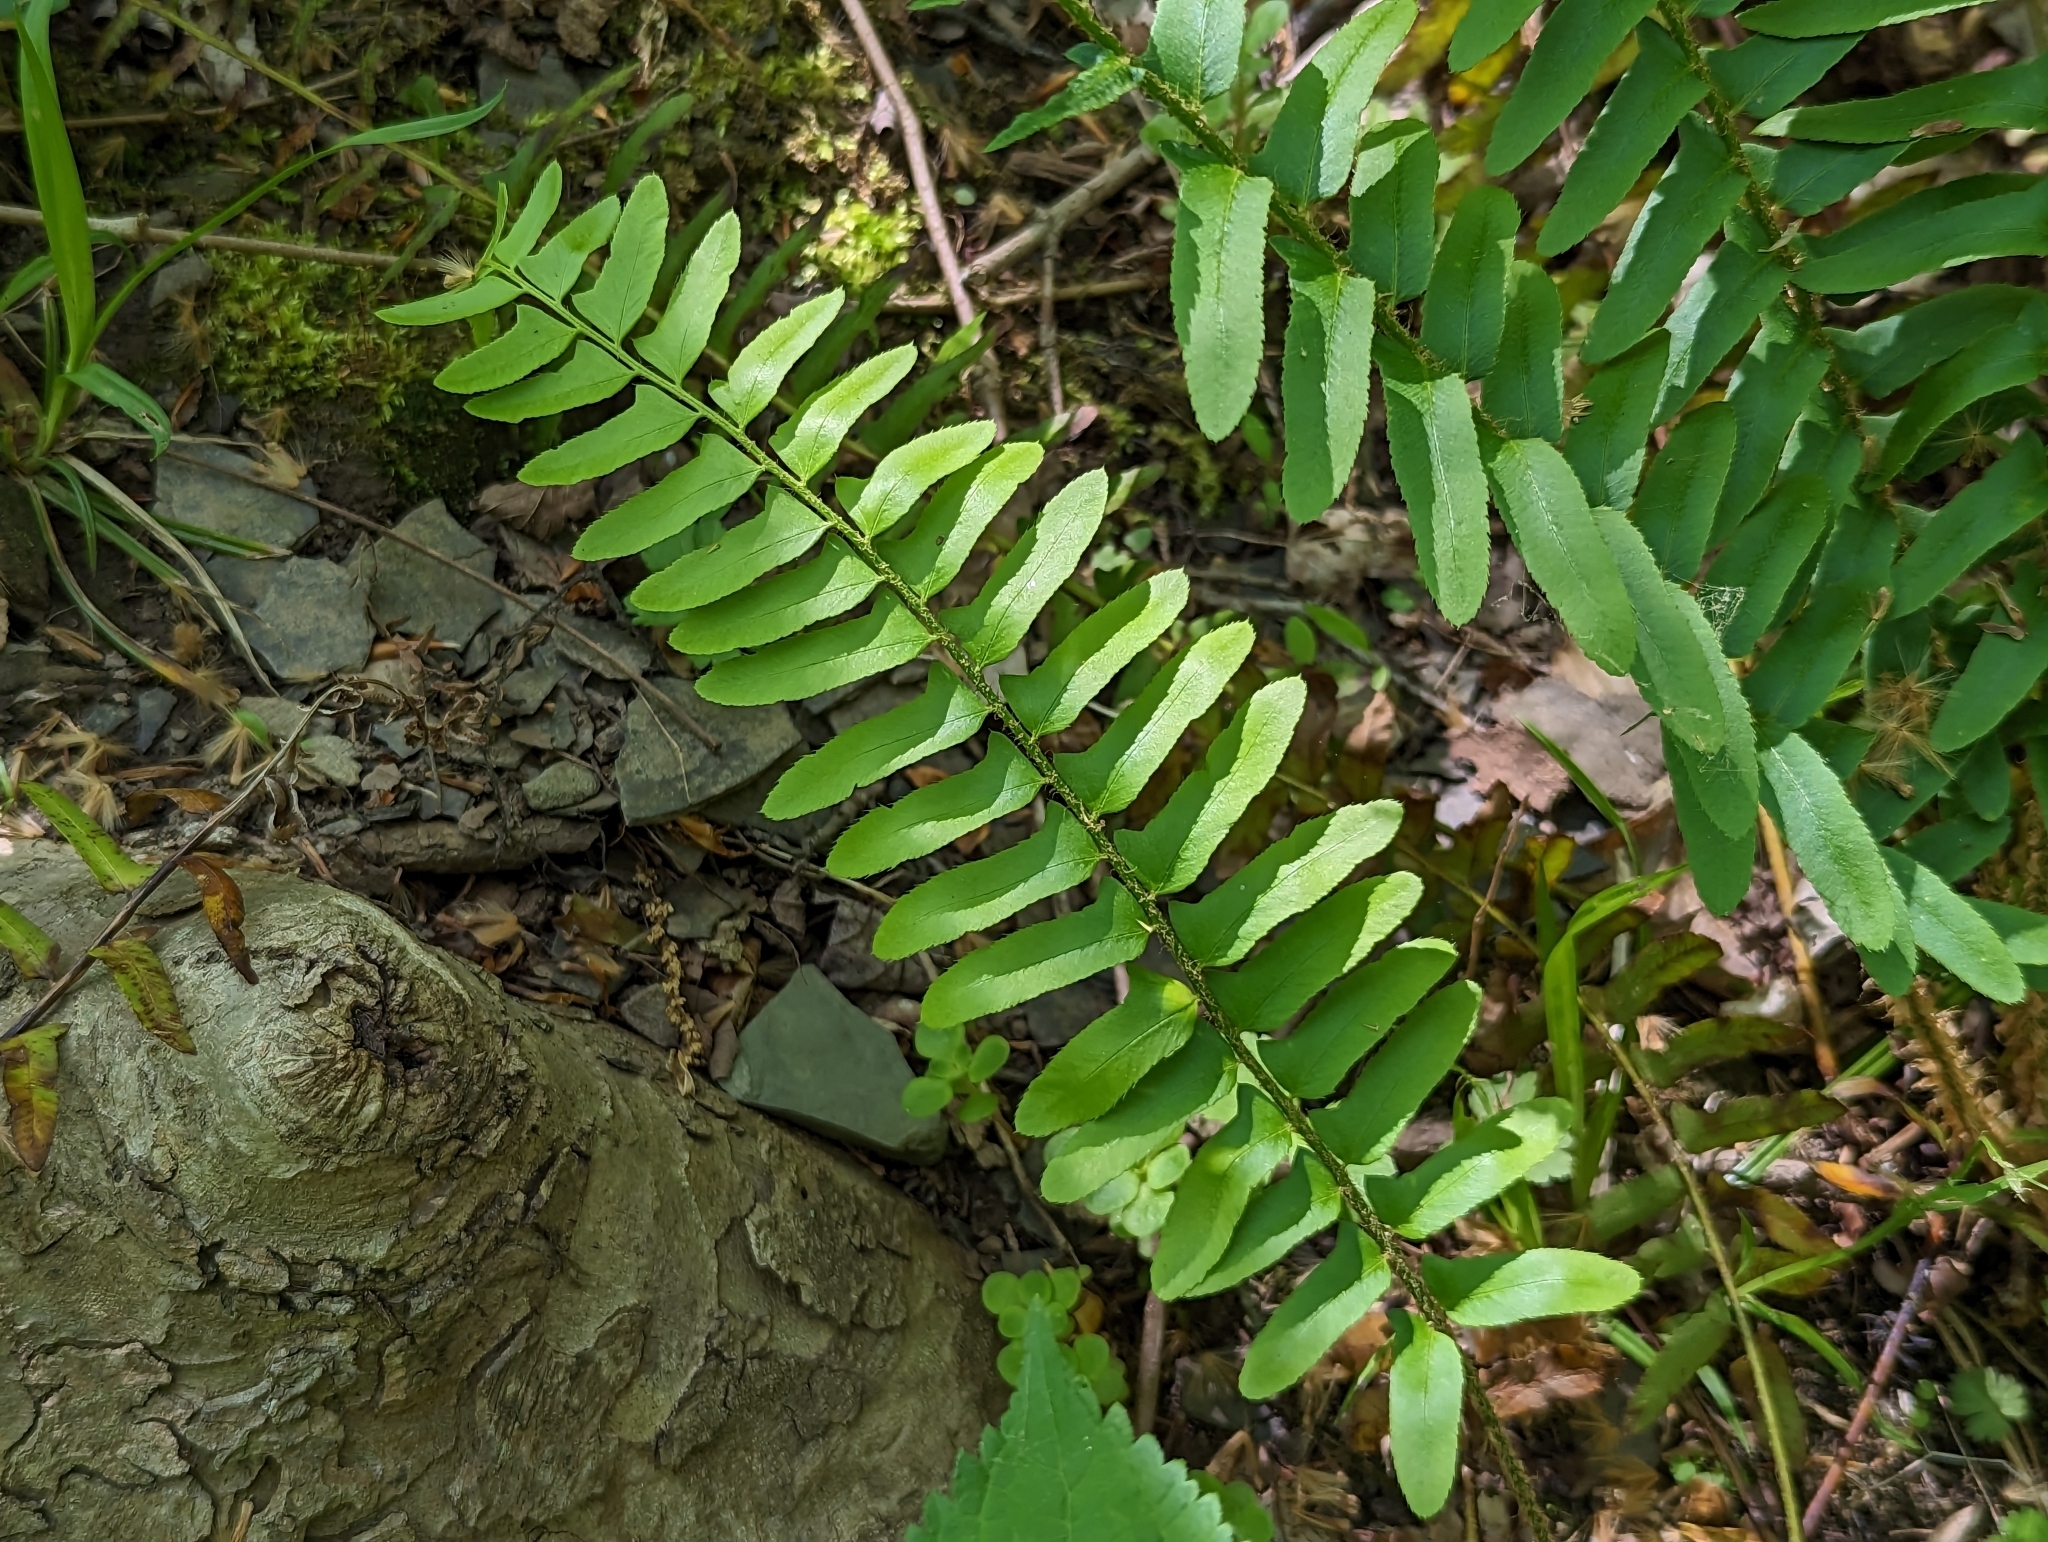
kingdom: Plantae
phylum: Tracheophyta
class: Polypodiopsida
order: Polypodiales
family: Dryopteridaceae
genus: Polystichum
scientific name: Polystichum acrostichoides
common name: Christmas fern
